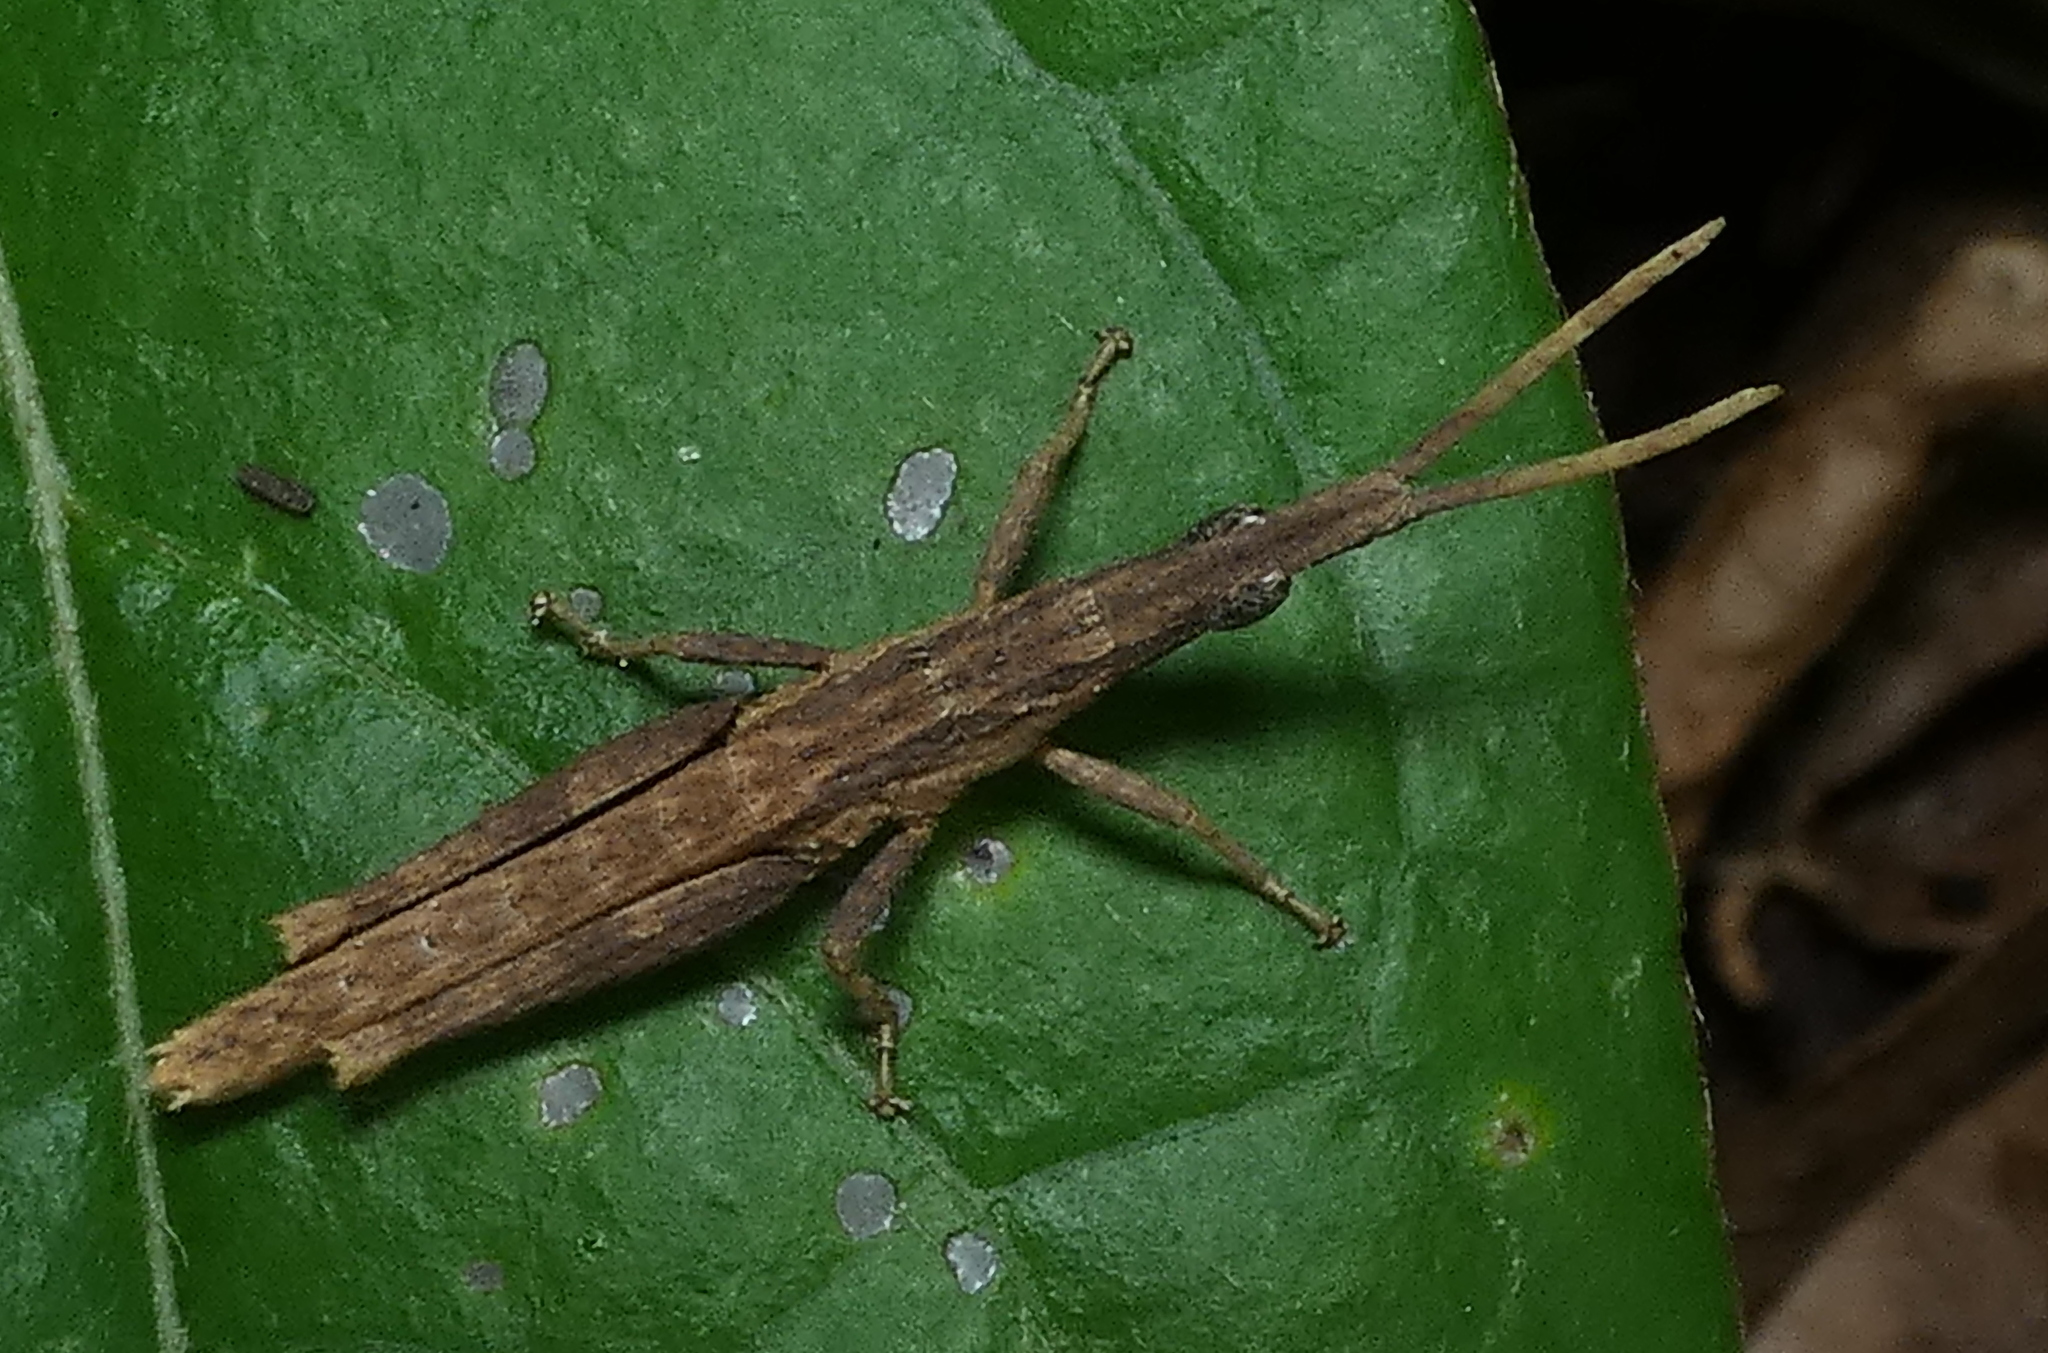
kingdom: Animalia
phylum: Arthropoda
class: Insecta
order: Orthoptera
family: Pyrgomorphidae
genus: Algete
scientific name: Algete brunneri
